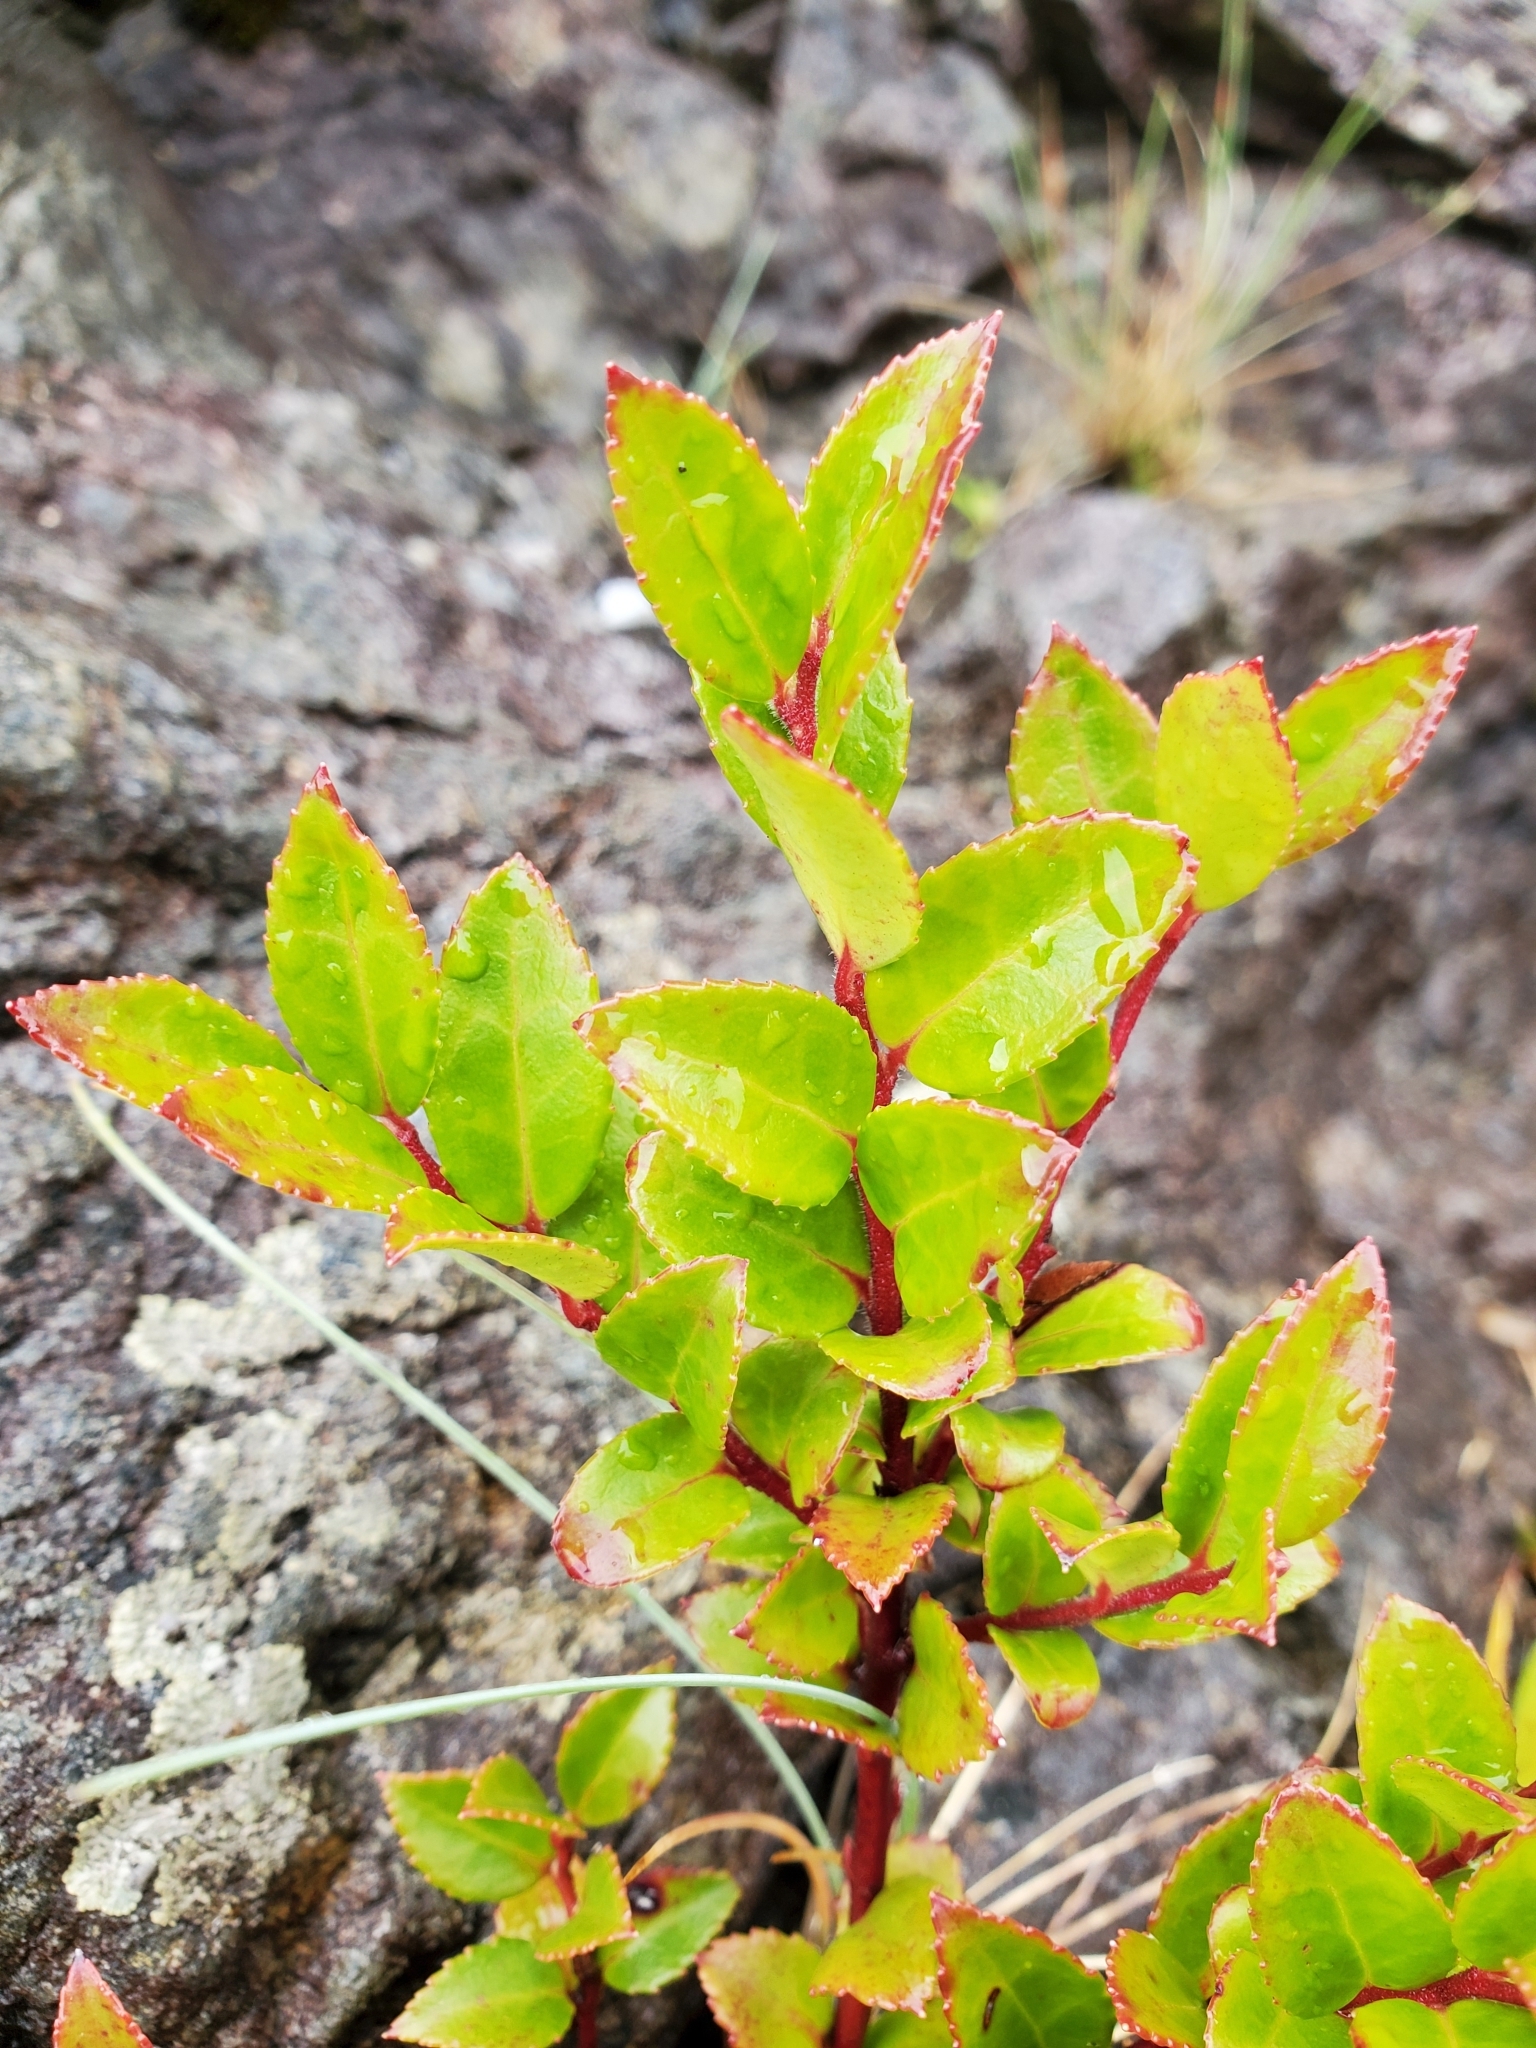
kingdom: Plantae
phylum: Tracheophyta
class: Magnoliopsida
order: Ericales
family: Ericaceae
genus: Vaccinium
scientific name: Vaccinium ovatum
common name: California-huckleberry
